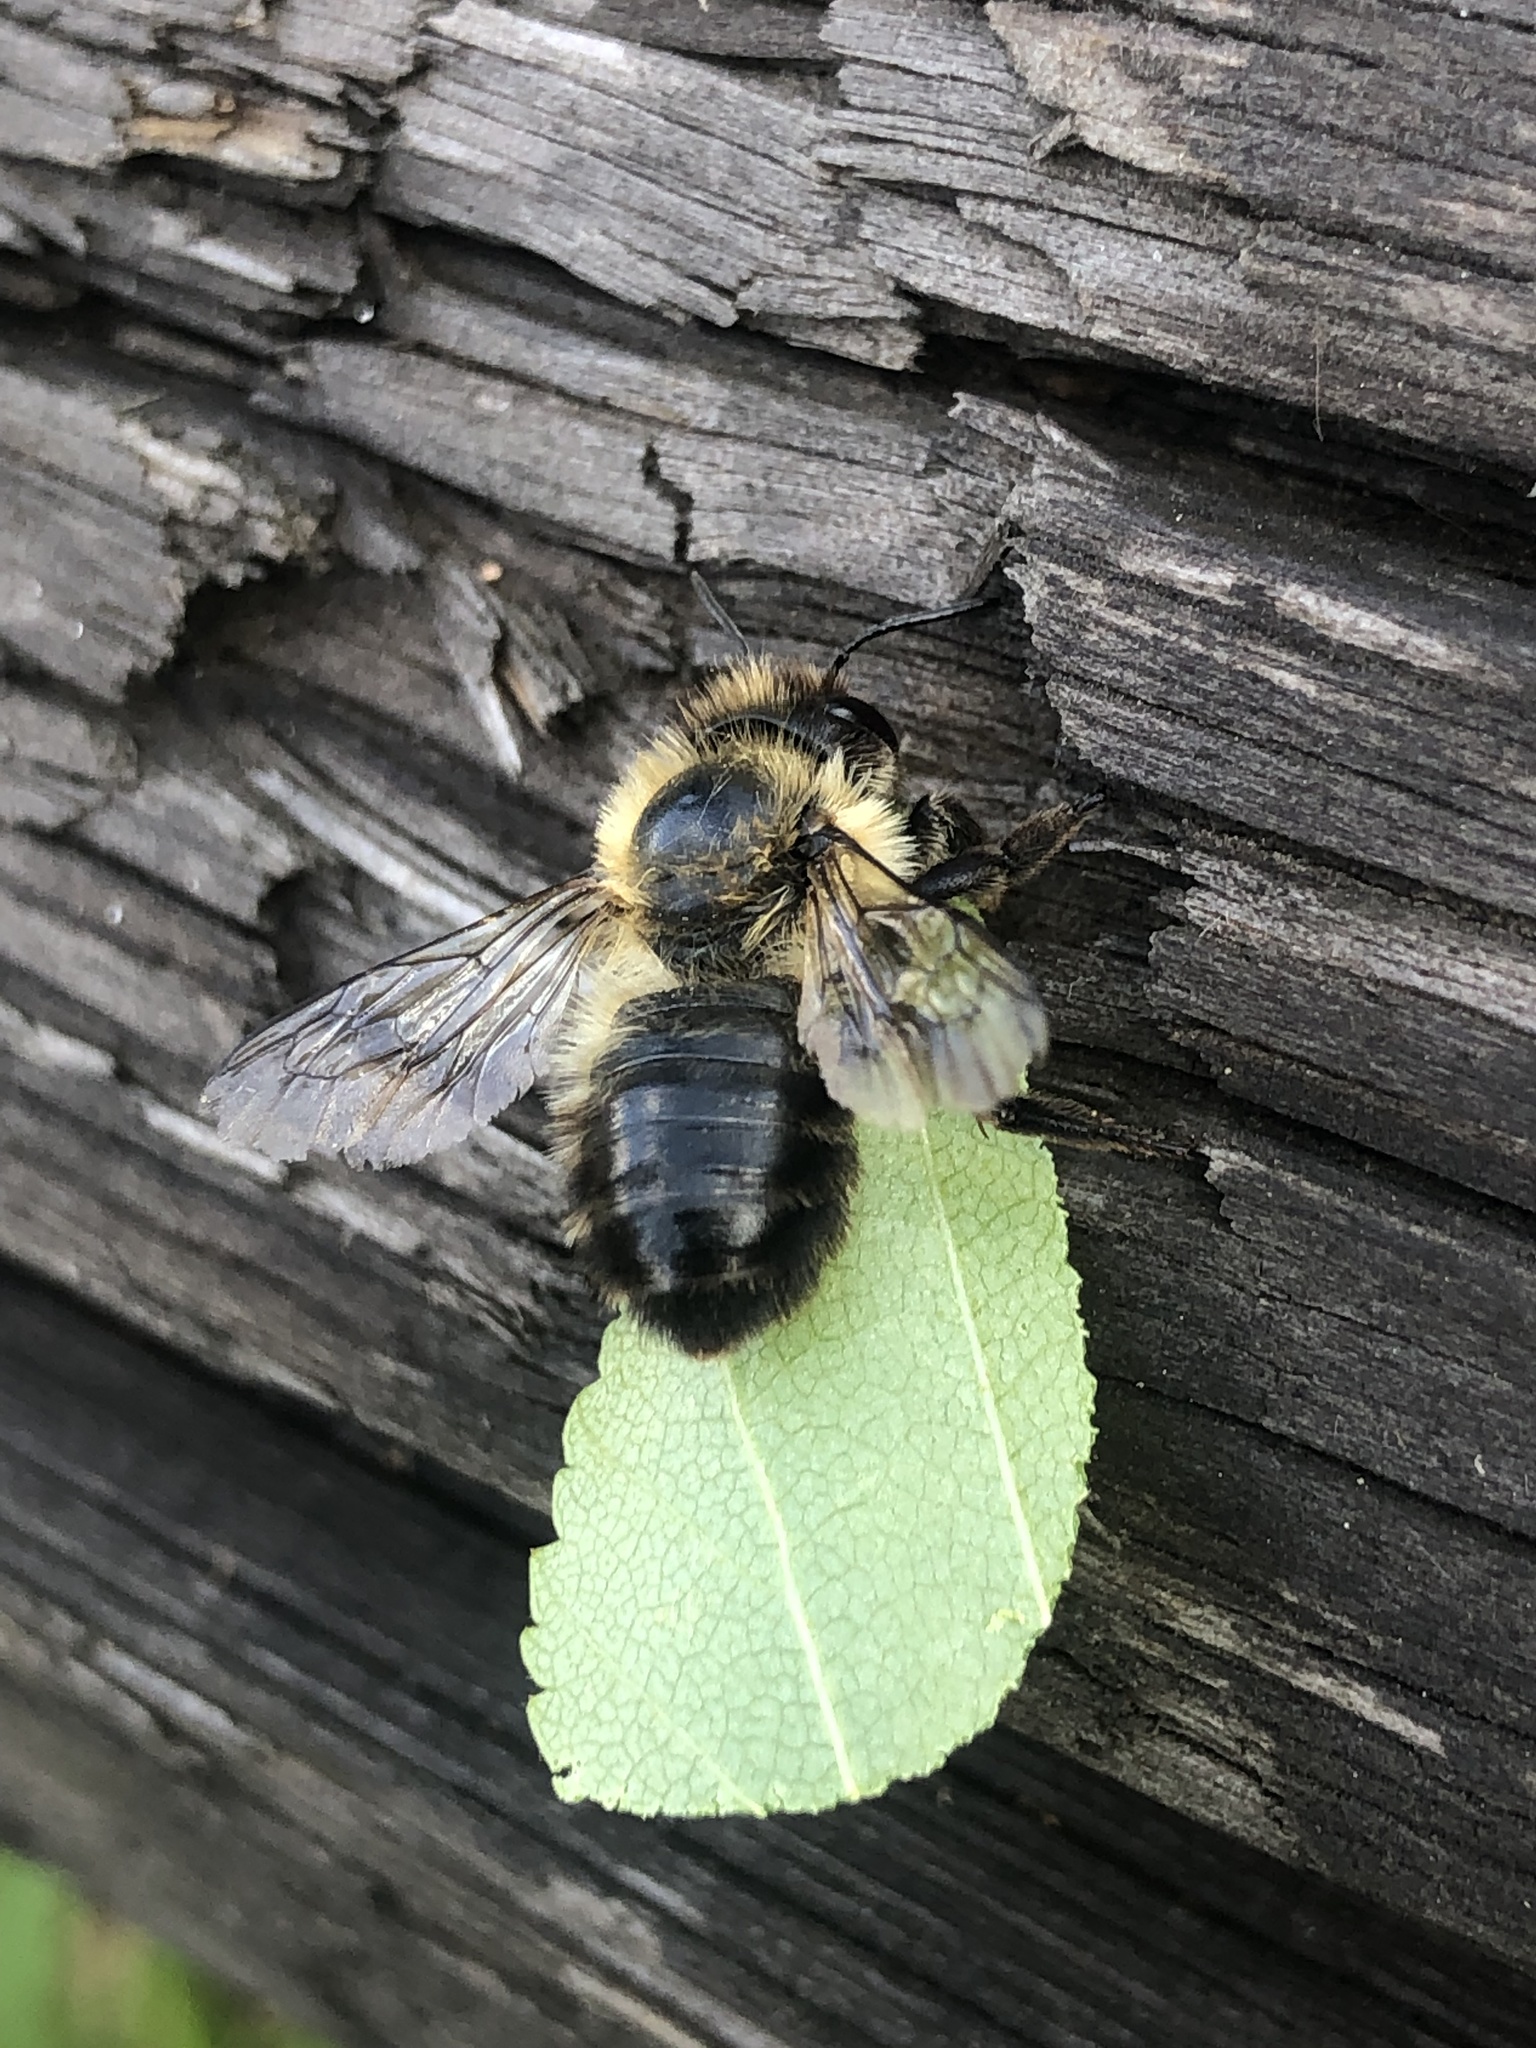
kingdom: Animalia
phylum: Arthropoda
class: Insecta
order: Hymenoptera
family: Megachilidae
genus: Megachile
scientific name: Megachile nigriventris
